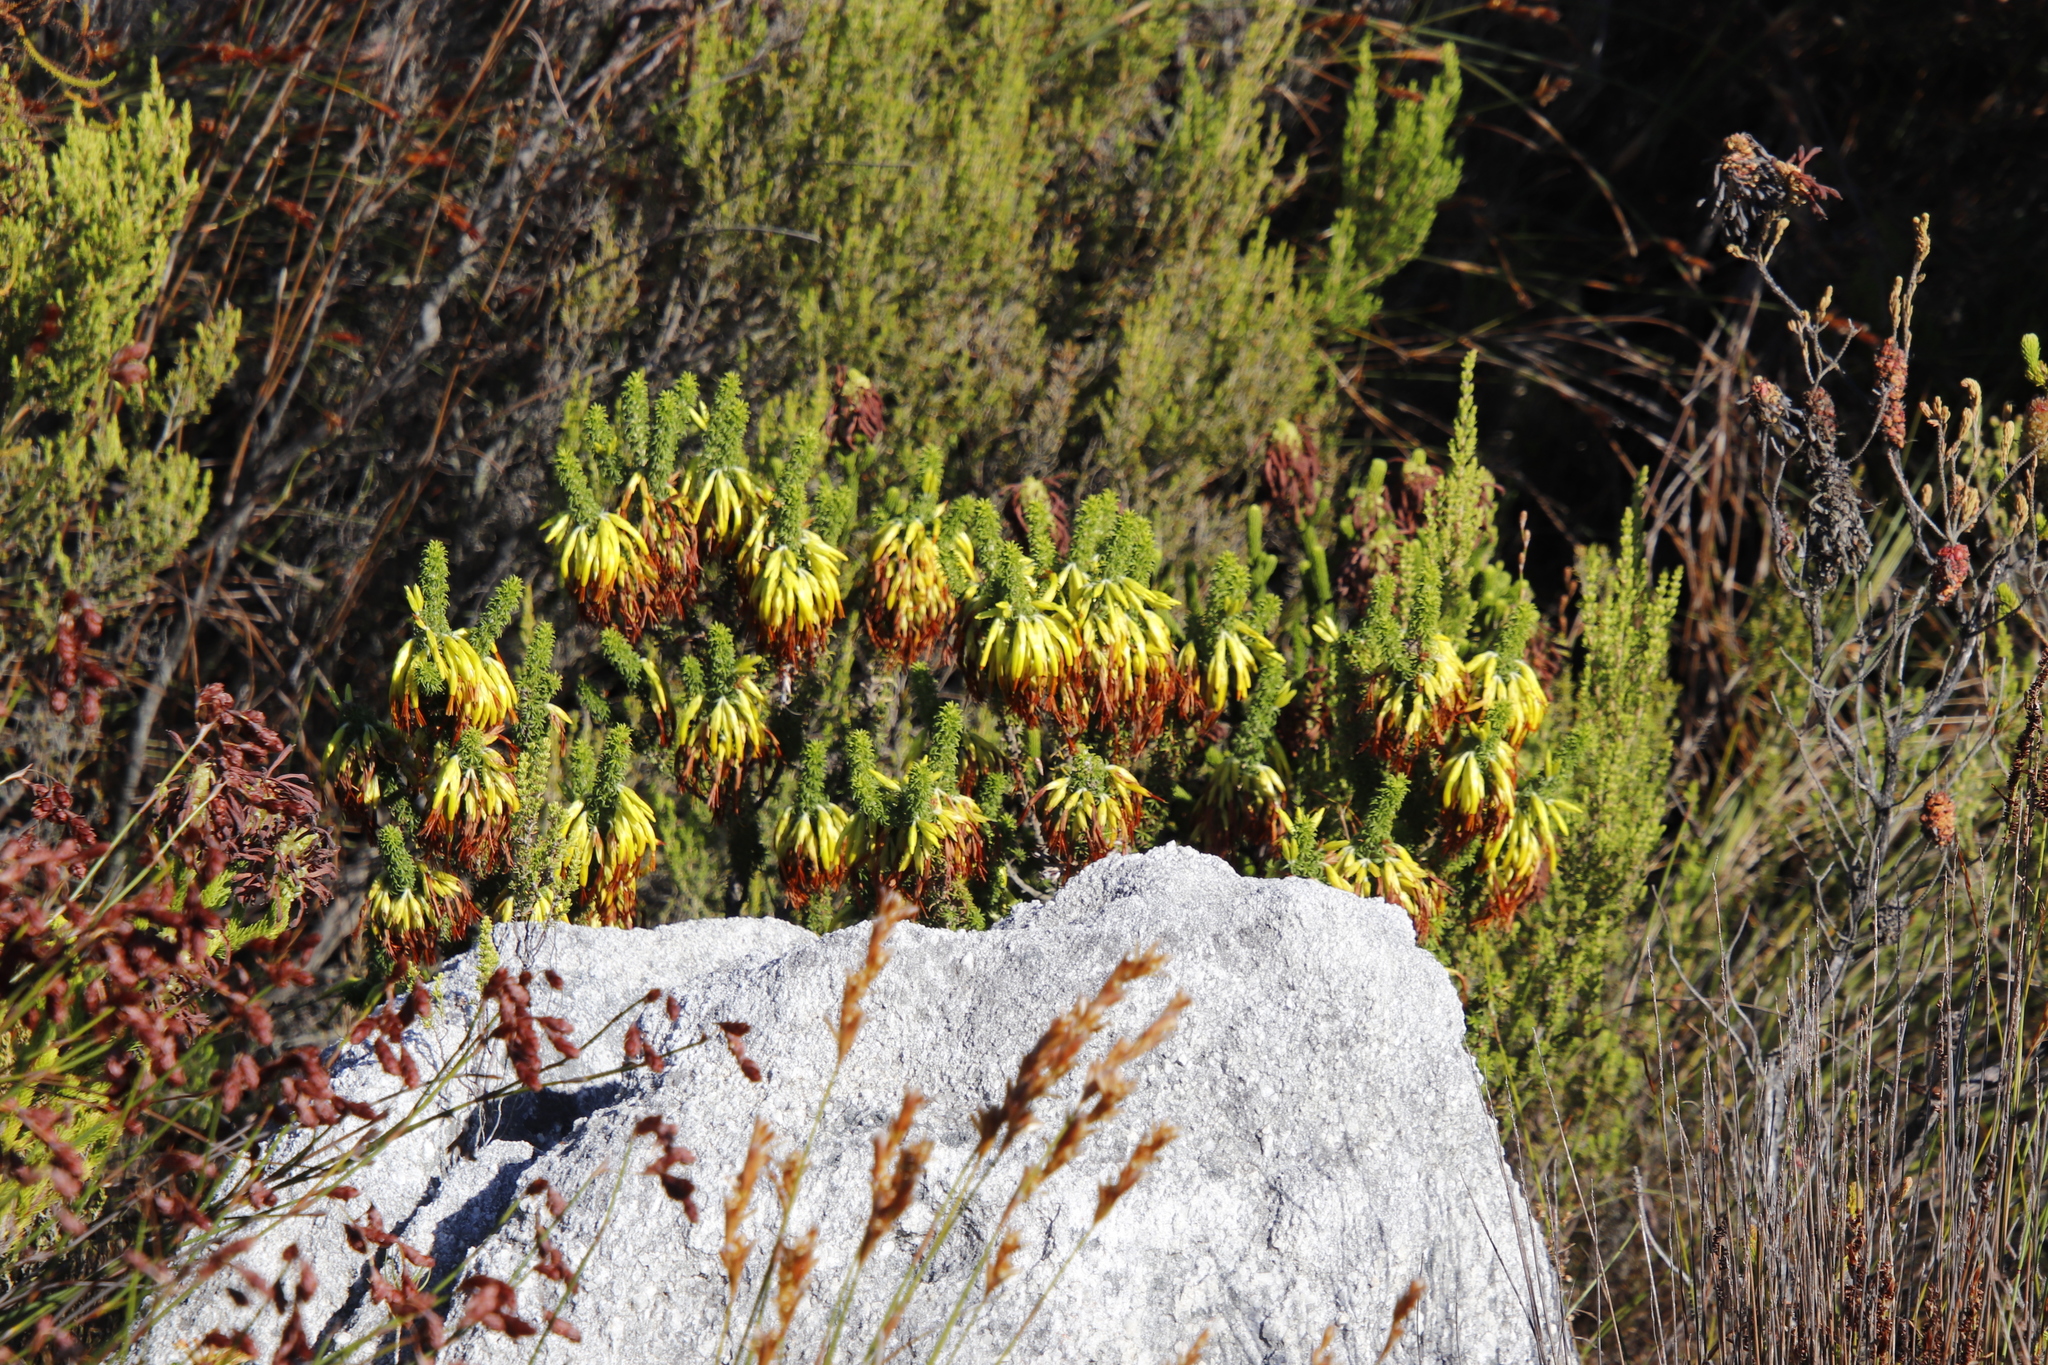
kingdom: Plantae
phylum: Tracheophyta
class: Magnoliopsida
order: Ericales
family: Ericaceae
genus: Erica
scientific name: Erica coccinea
